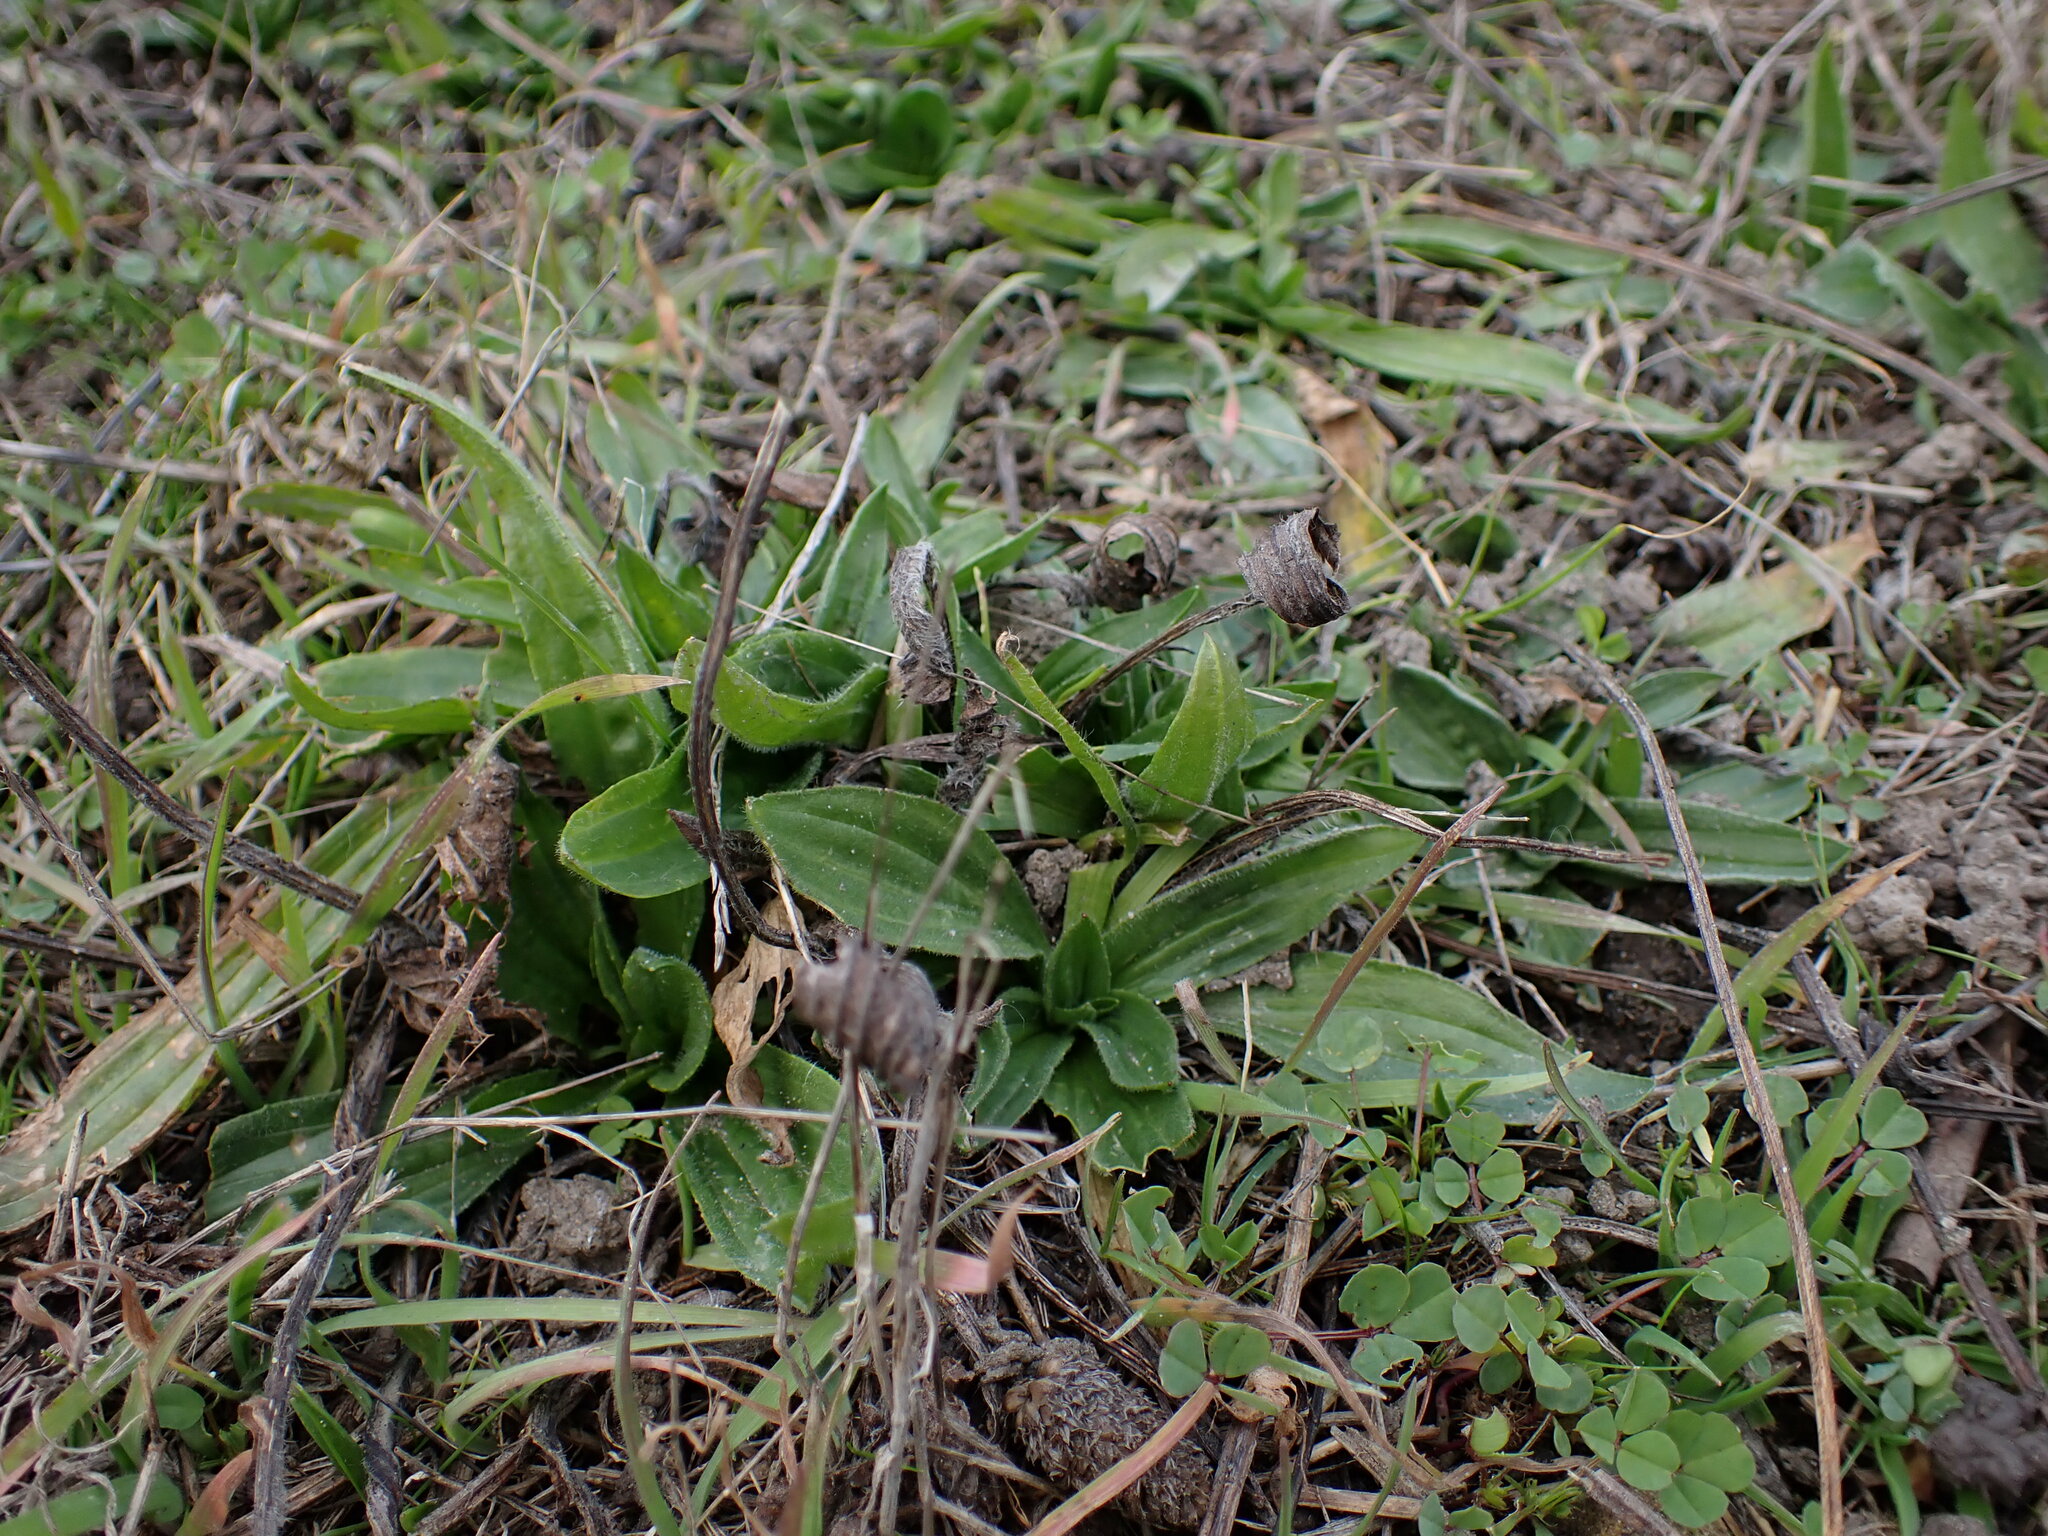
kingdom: Plantae
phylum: Tracheophyta
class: Magnoliopsida
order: Lamiales
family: Plantaginaceae
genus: Plantago
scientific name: Plantago lanceolata
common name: Ribwort plantain
